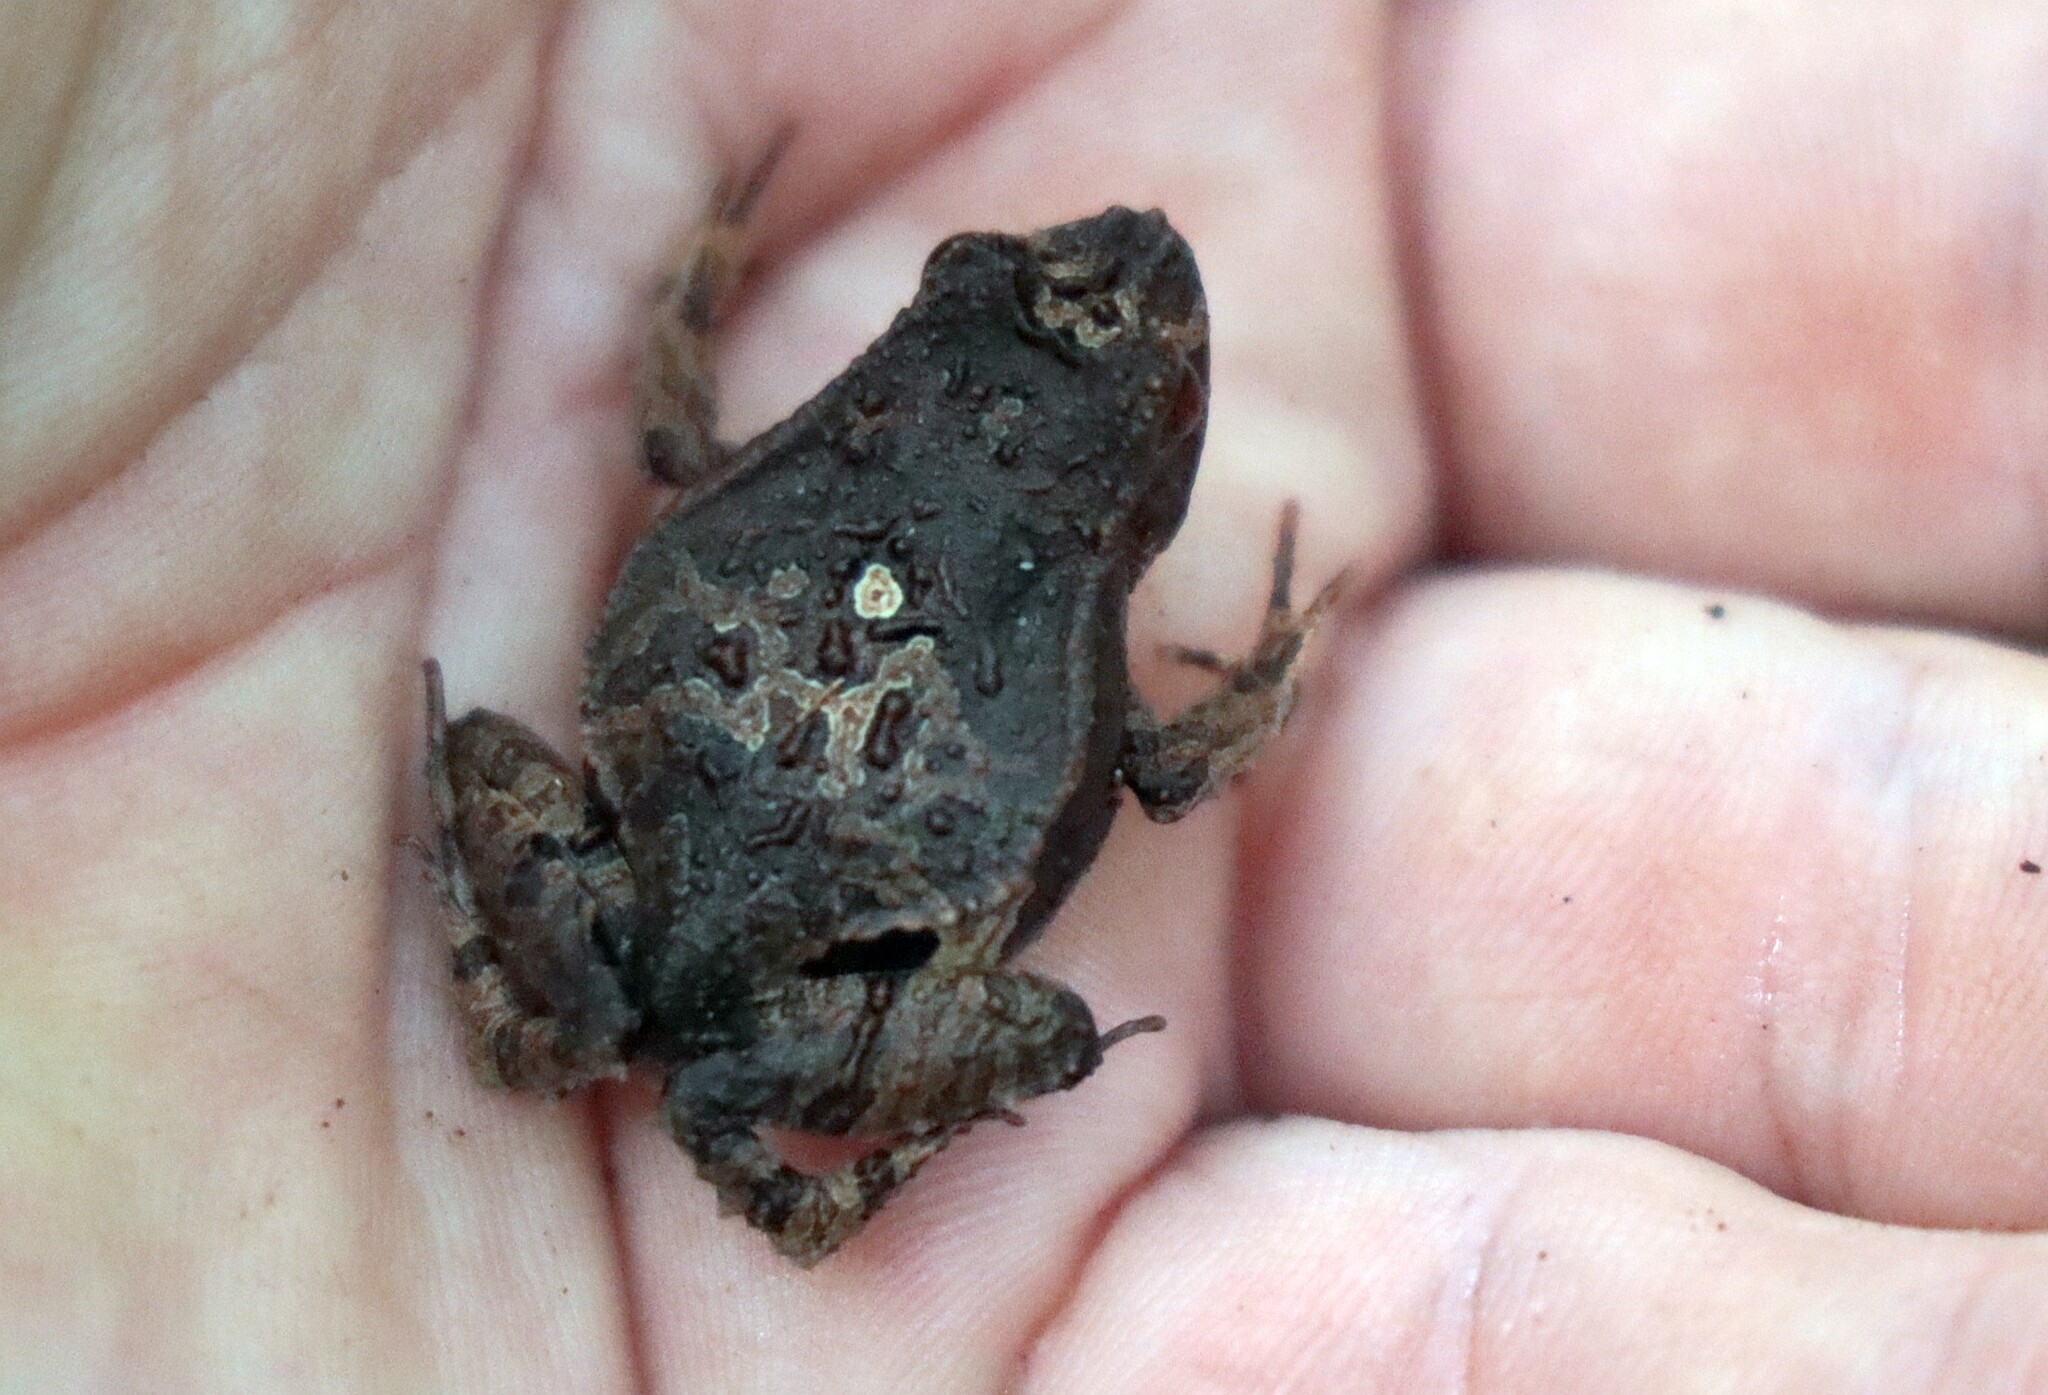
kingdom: Animalia
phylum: Chordata
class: Amphibia
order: Anura
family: Leptodactylidae
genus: Edalorhina
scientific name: Edalorhina perezi
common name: Perez’s snouted frog
